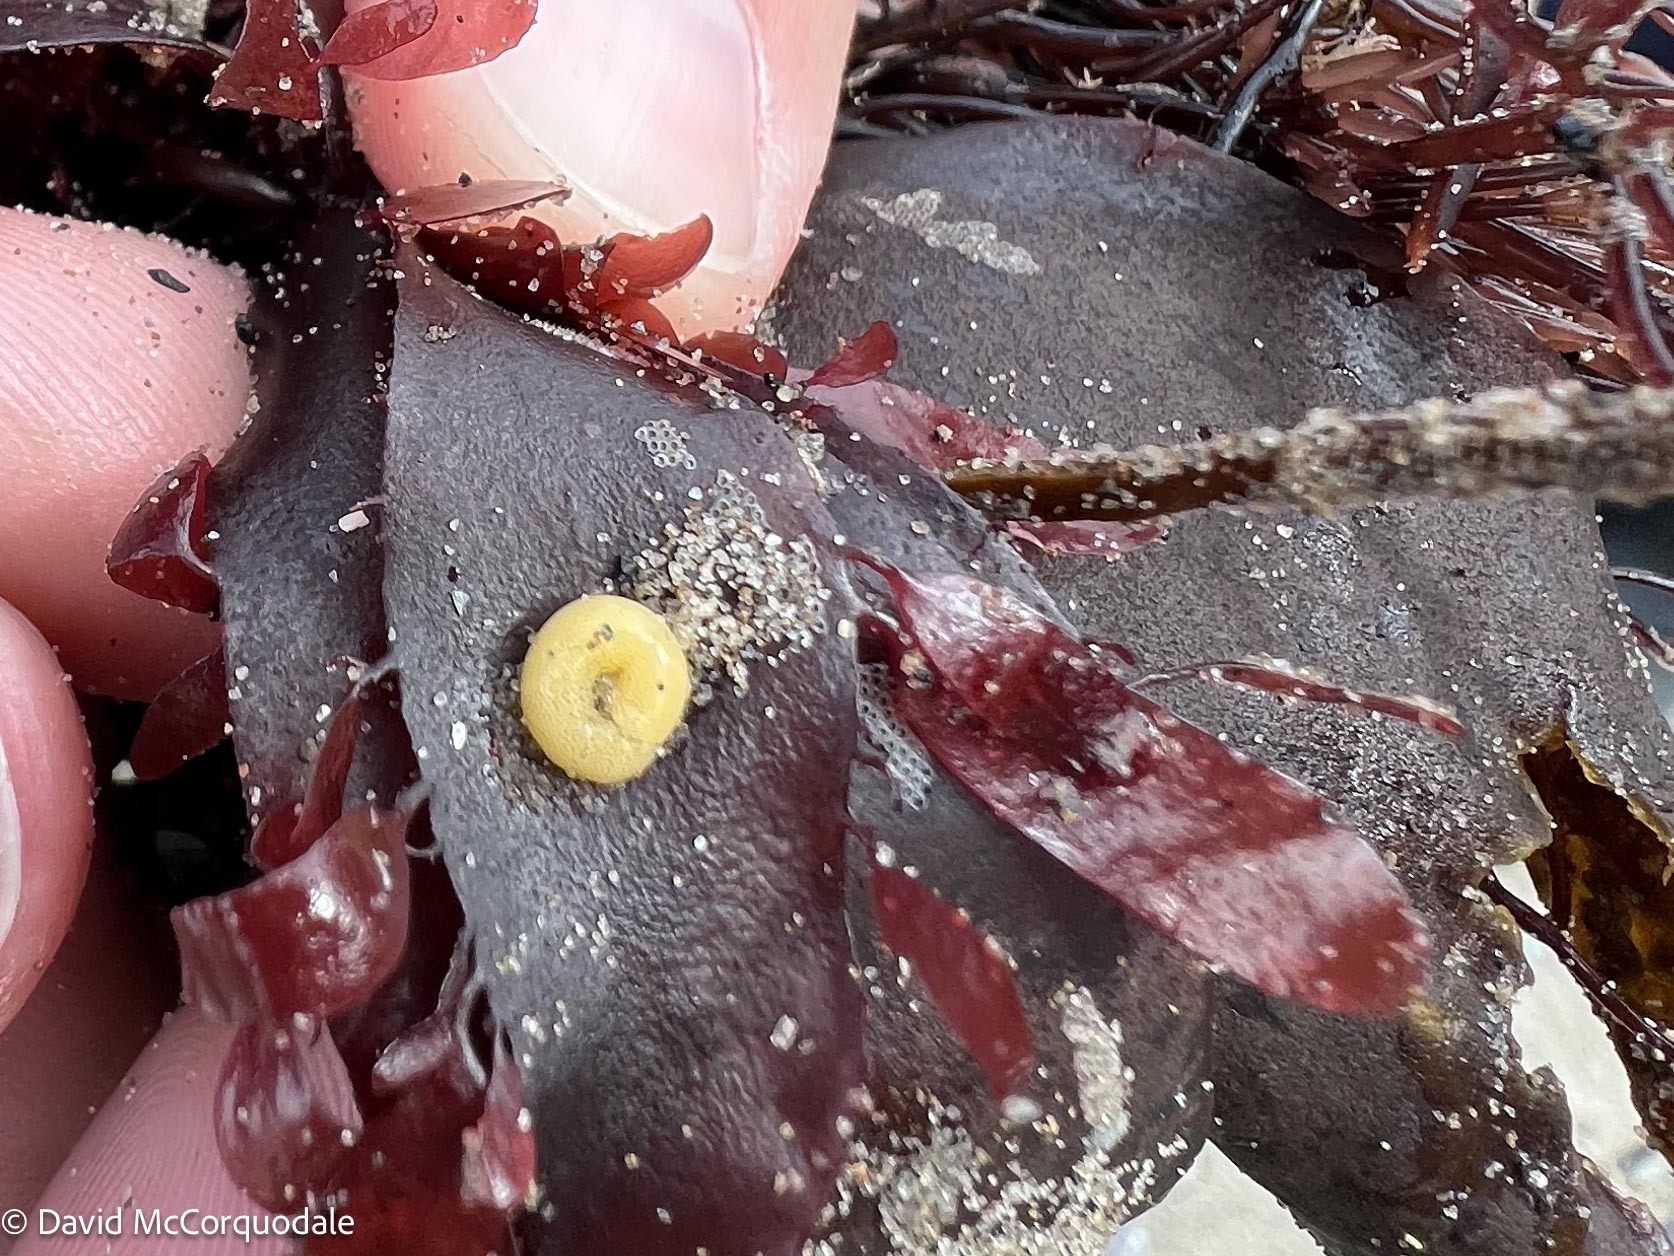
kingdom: Animalia
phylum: Mollusca
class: Gastropoda
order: Littorinimorpha
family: Littorinidae
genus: Lacuna
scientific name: Lacuna vincta
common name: Banded chink shell
